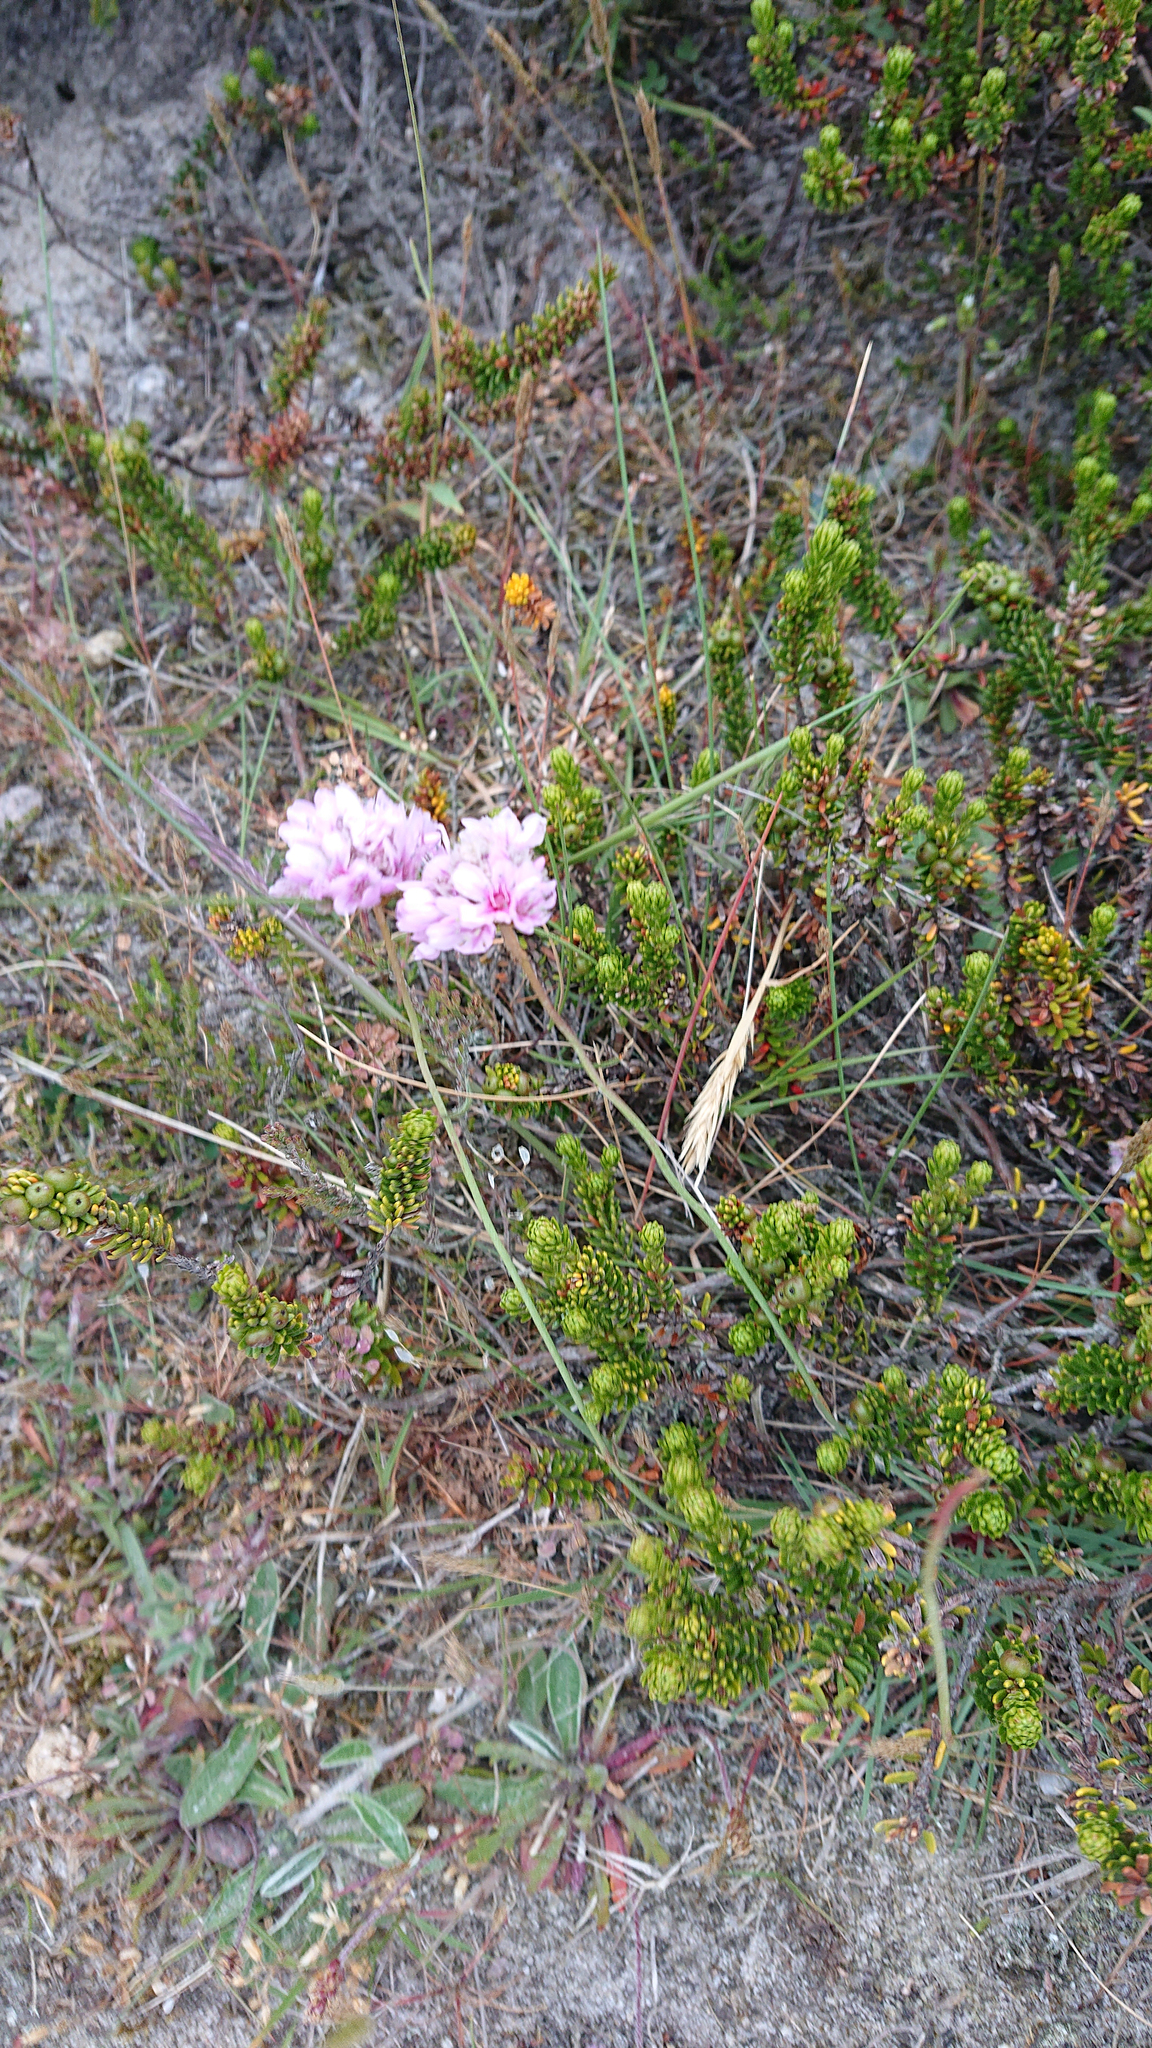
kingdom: Plantae
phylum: Tracheophyta
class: Magnoliopsida
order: Caryophyllales
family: Plumbaginaceae
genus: Armeria
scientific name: Armeria maritima
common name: Thrift
